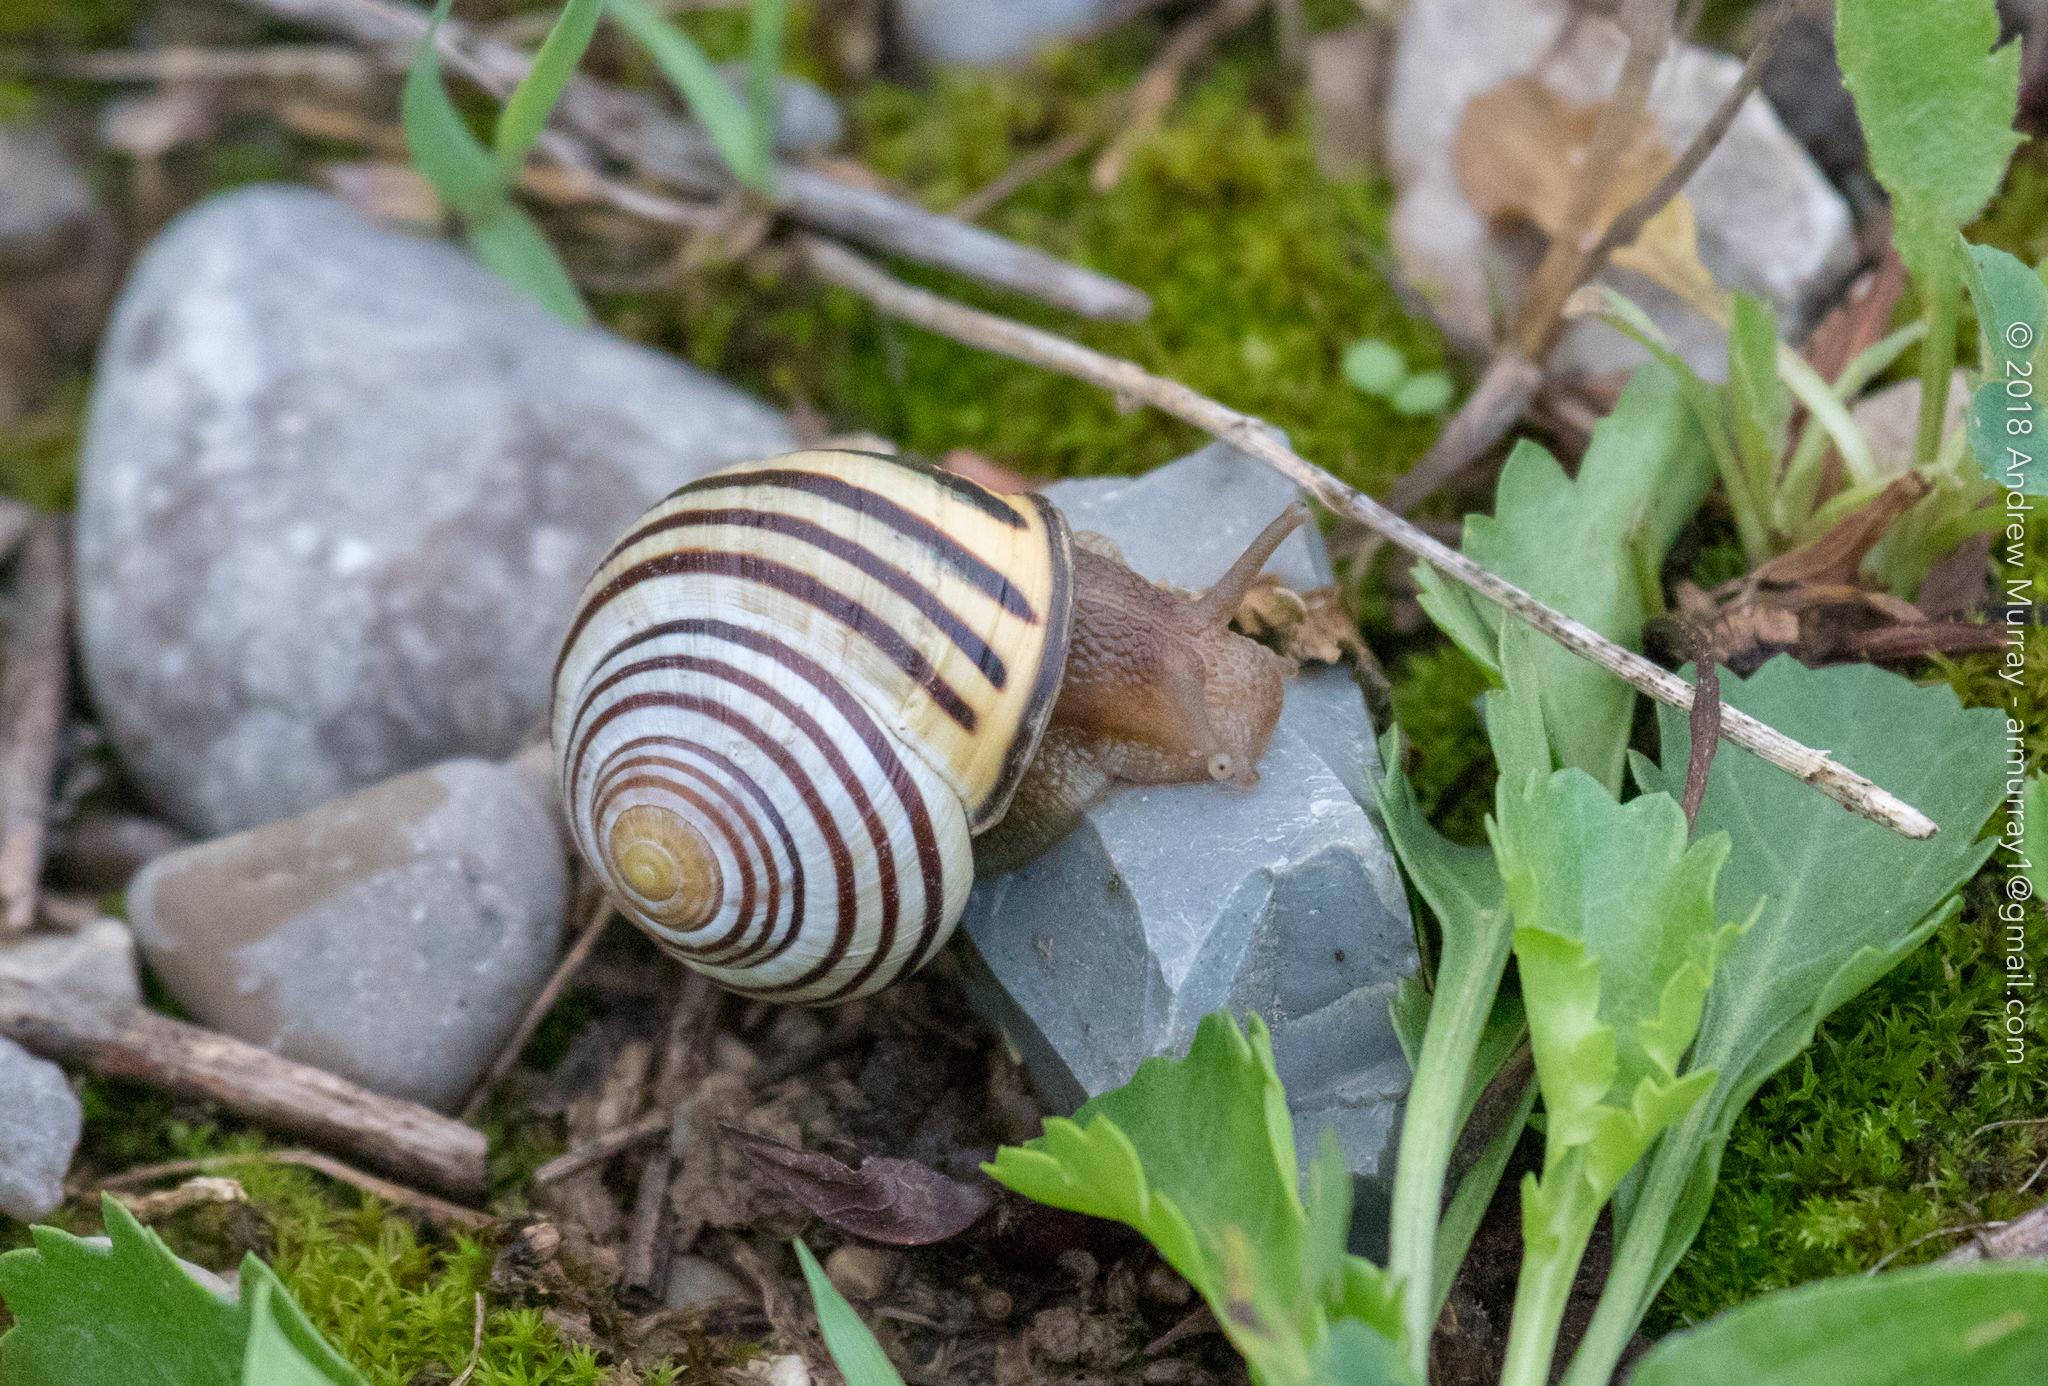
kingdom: Animalia
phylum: Mollusca
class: Gastropoda
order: Stylommatophora
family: Helicidae
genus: Cepaea
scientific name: Cepaea nemoralis
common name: Grovesnail
